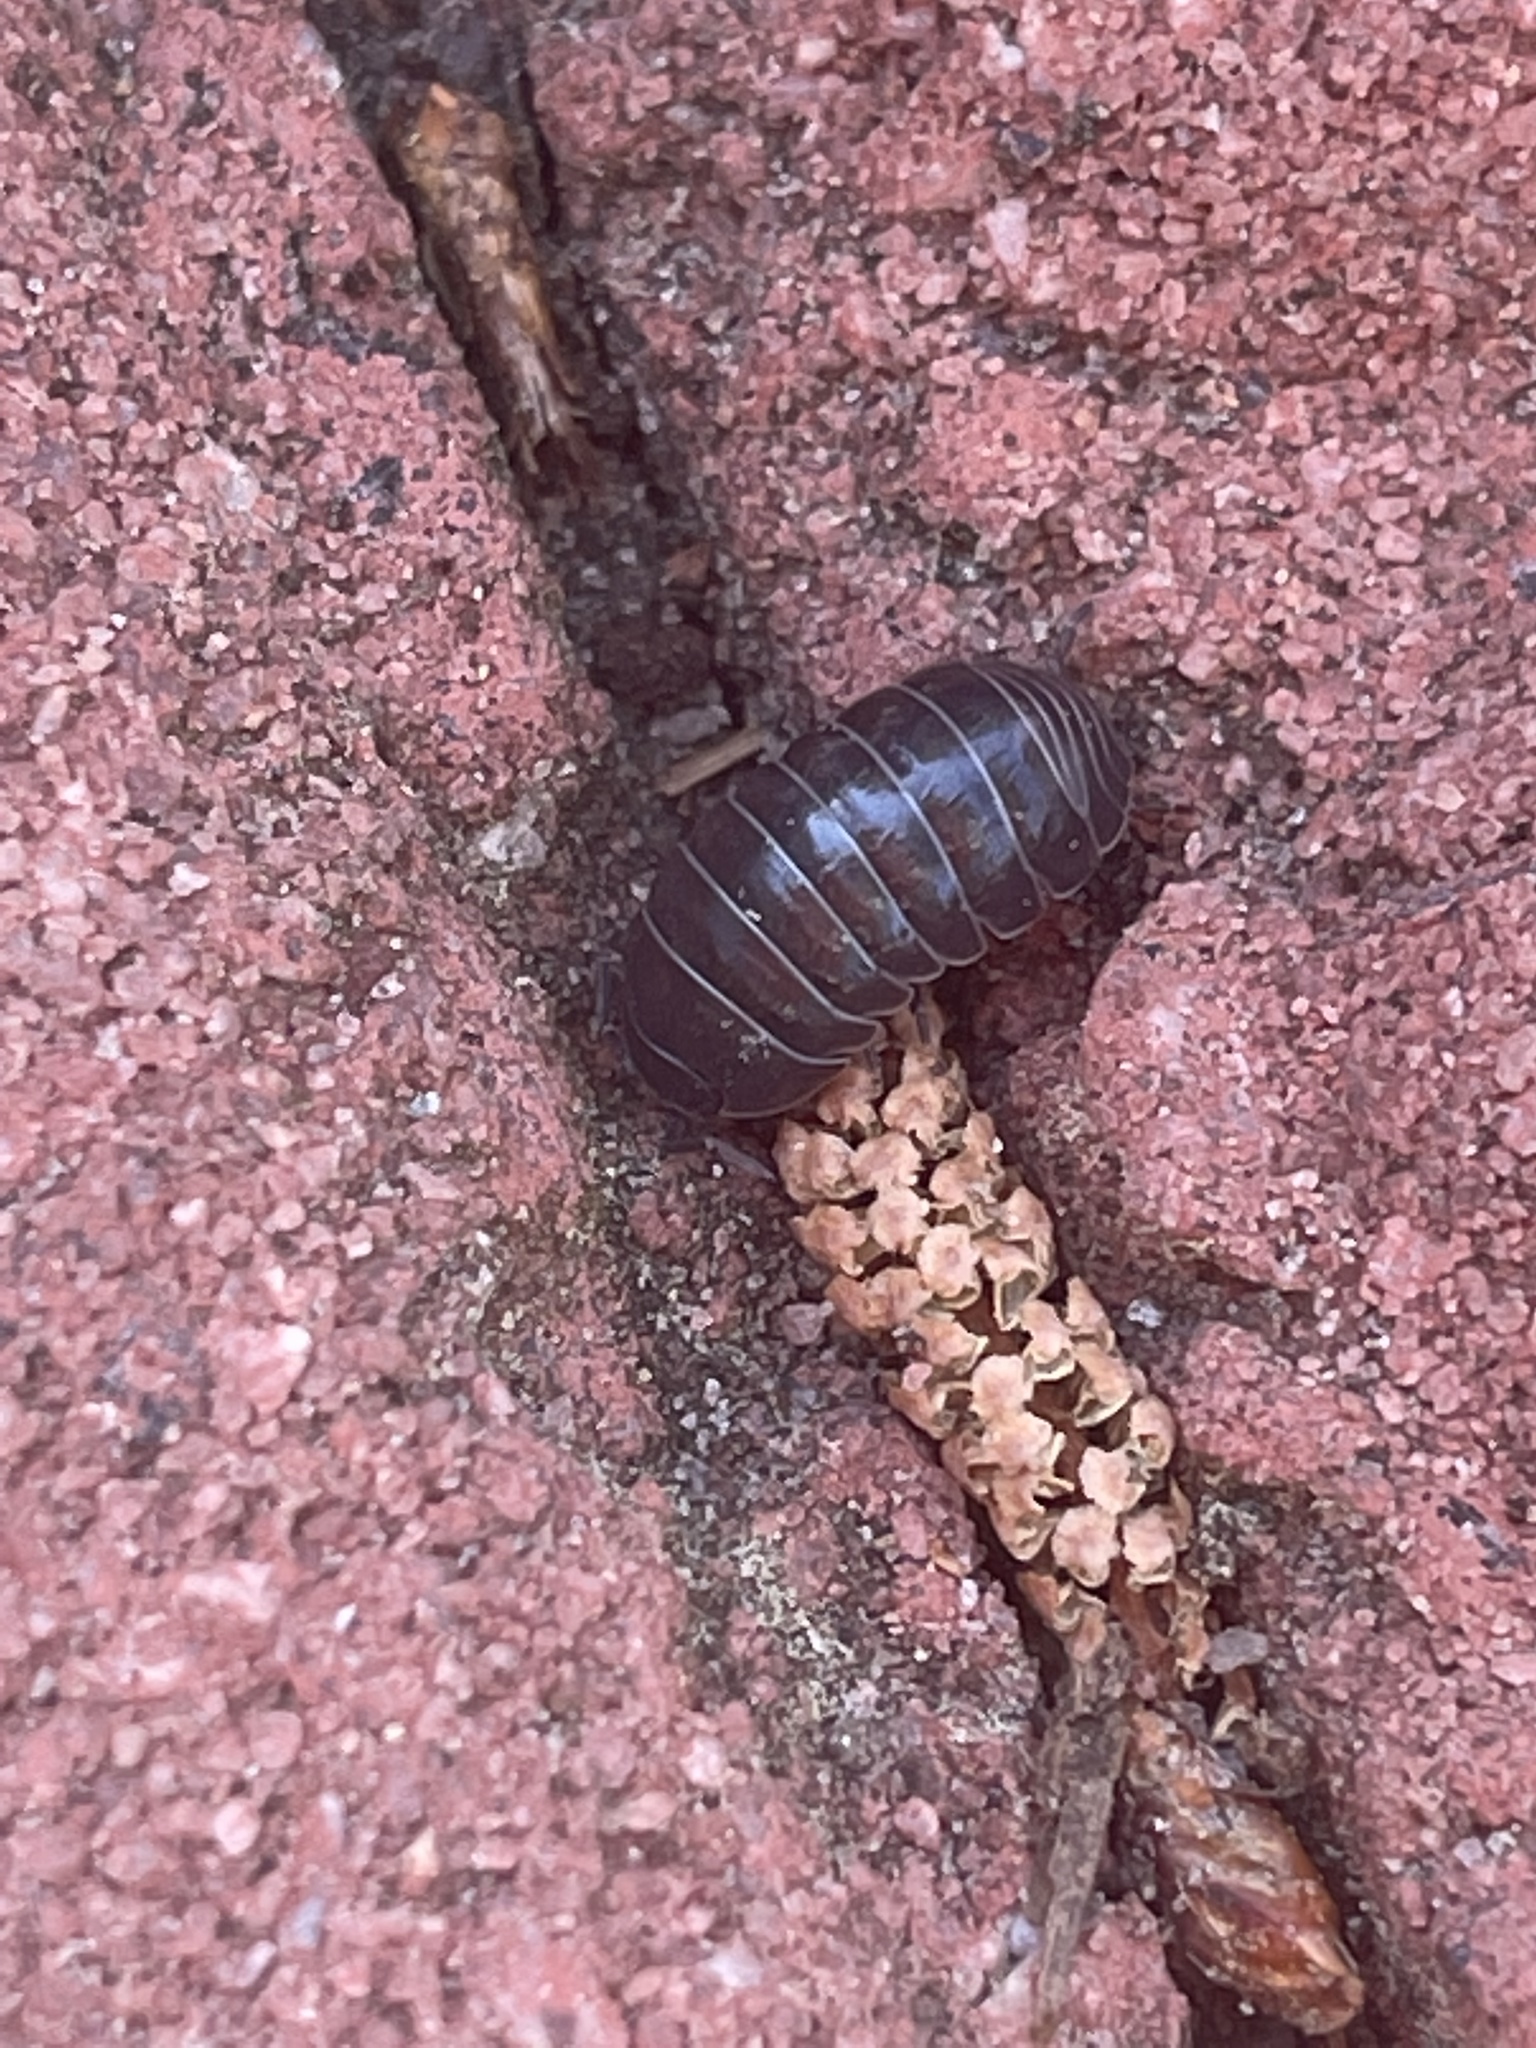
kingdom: Animalia
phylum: Arthropoda
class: Malacostraca
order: Isopoda
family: Armadillidiidae
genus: Armadillidium
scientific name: Armadillidium vulgare
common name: Common pill woodlouse
